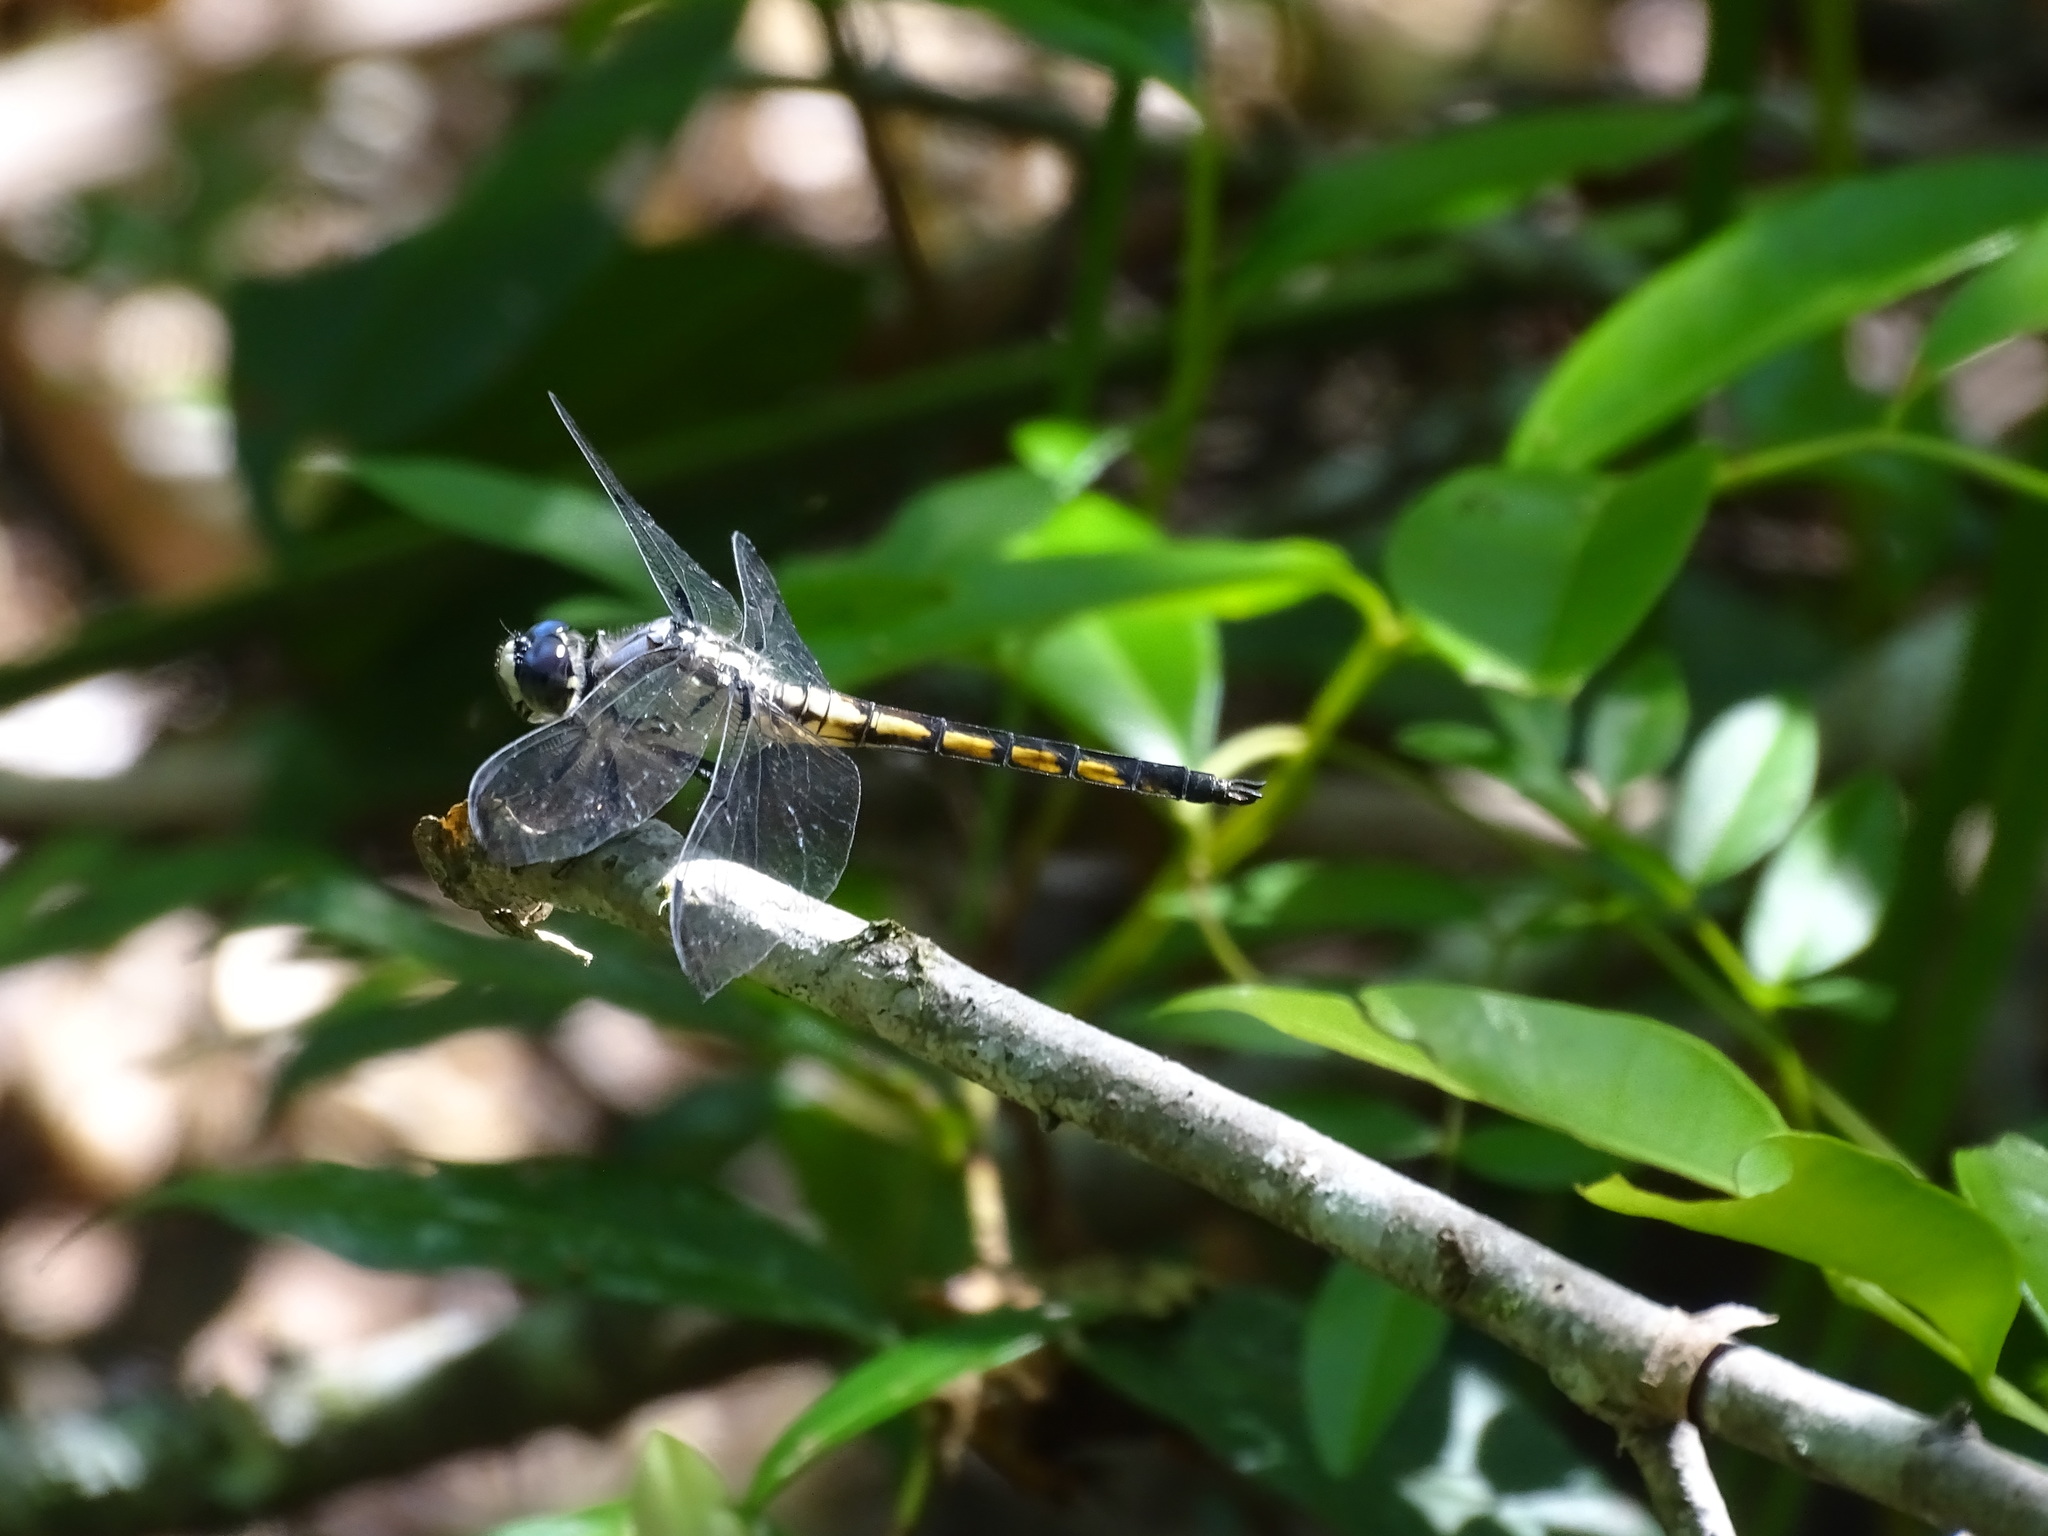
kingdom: Animalia
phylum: Arthropoda
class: Insecta
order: Odonata
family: Libellulidae
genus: Libellula
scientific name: Libellula vibrans
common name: Great blue skimmer
